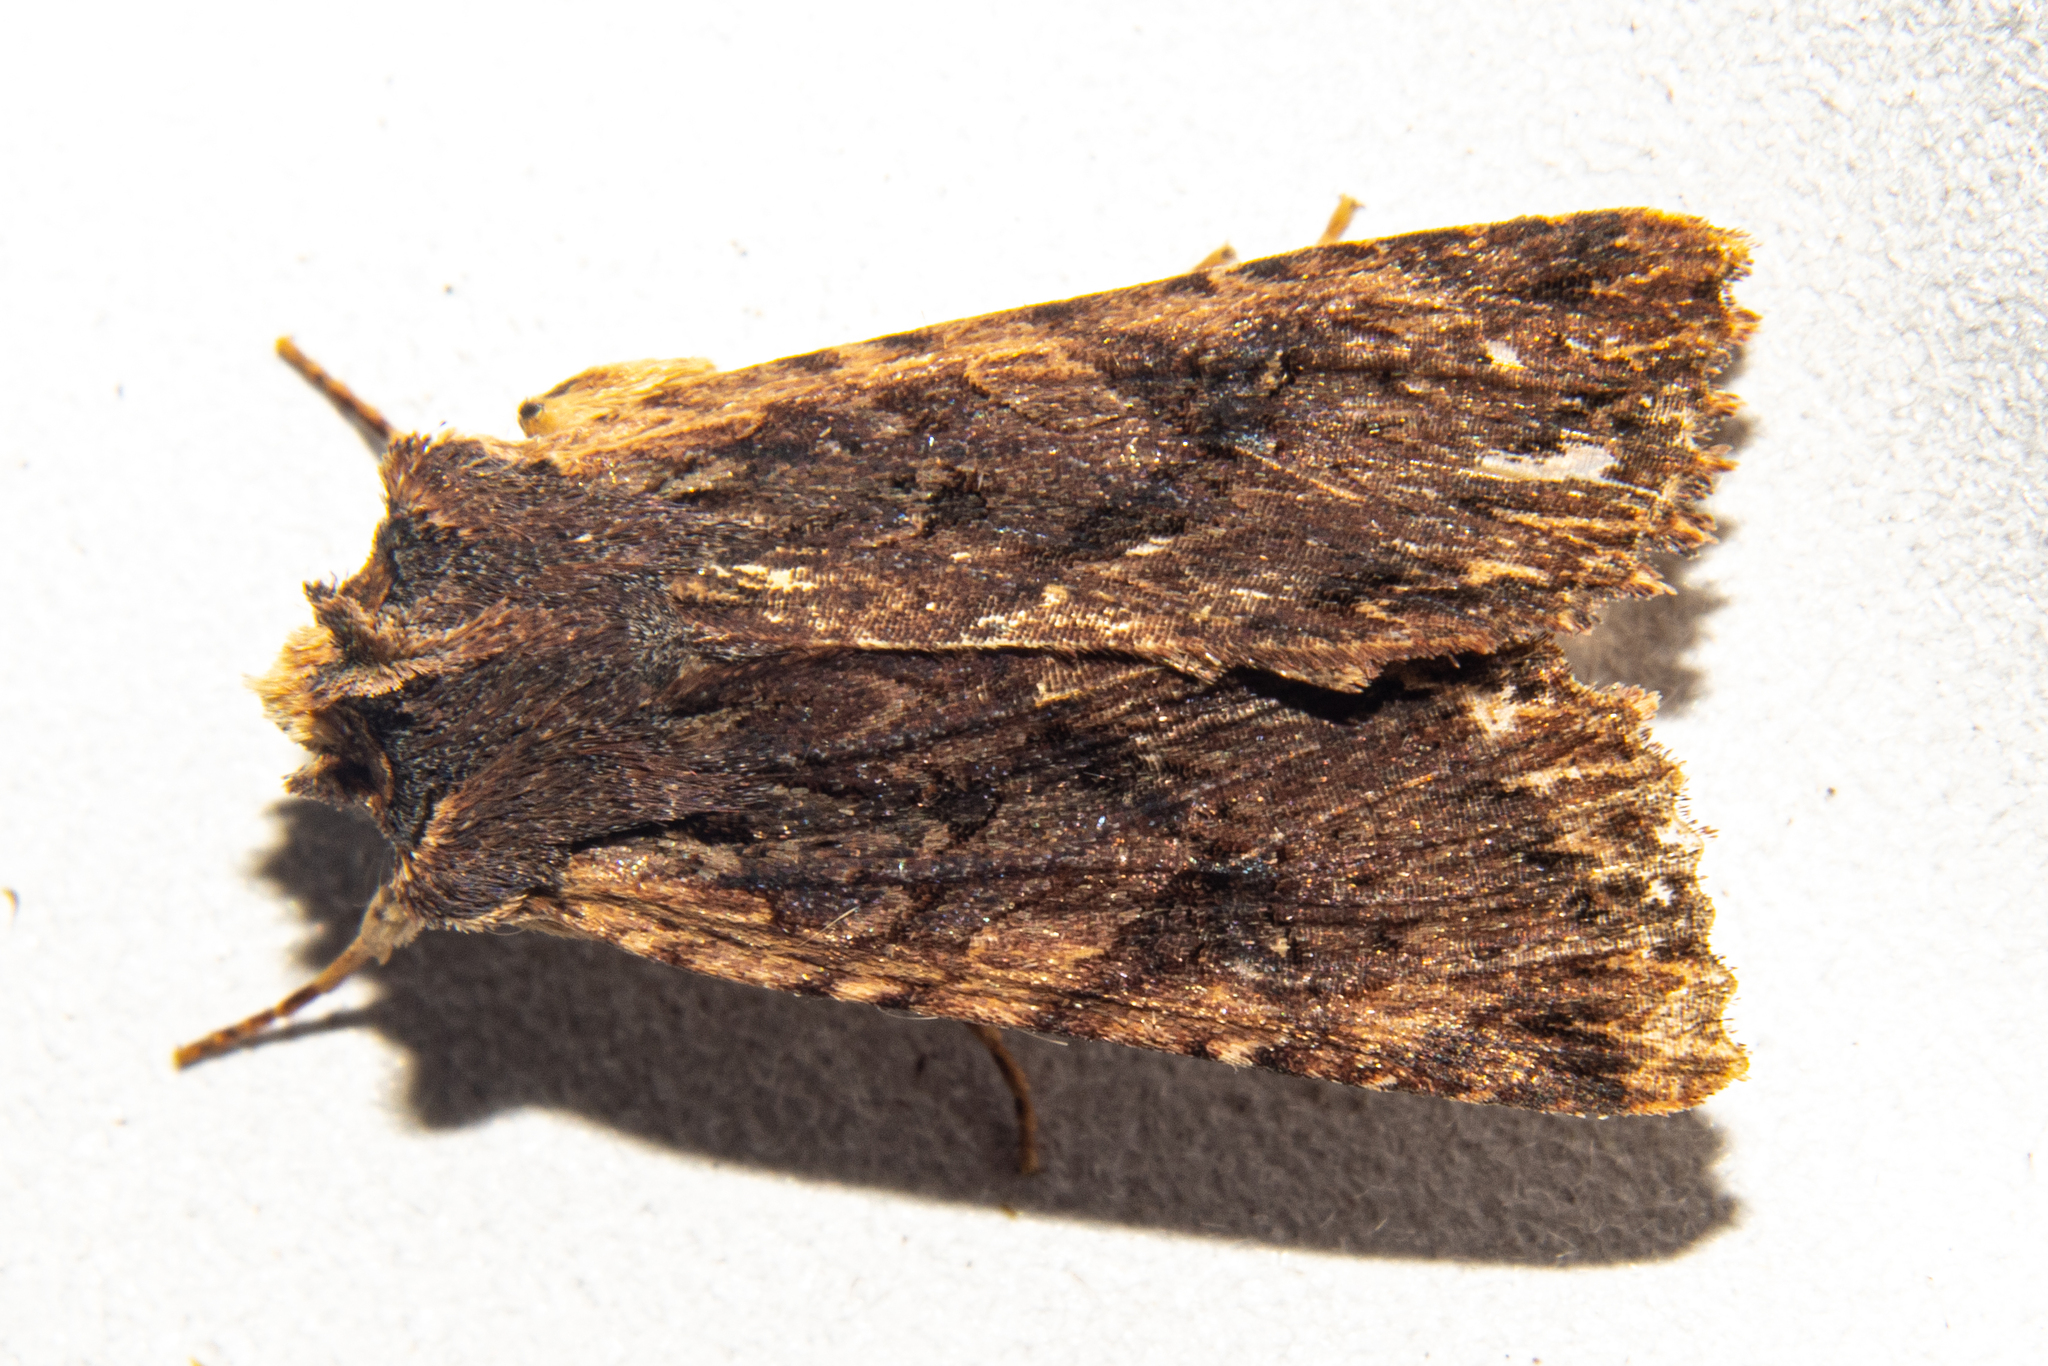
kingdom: Animalia
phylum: Arthropoda
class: Insecta
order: Lepidoptera
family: Noctuidae
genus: Meterana
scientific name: Meterana alcyone
